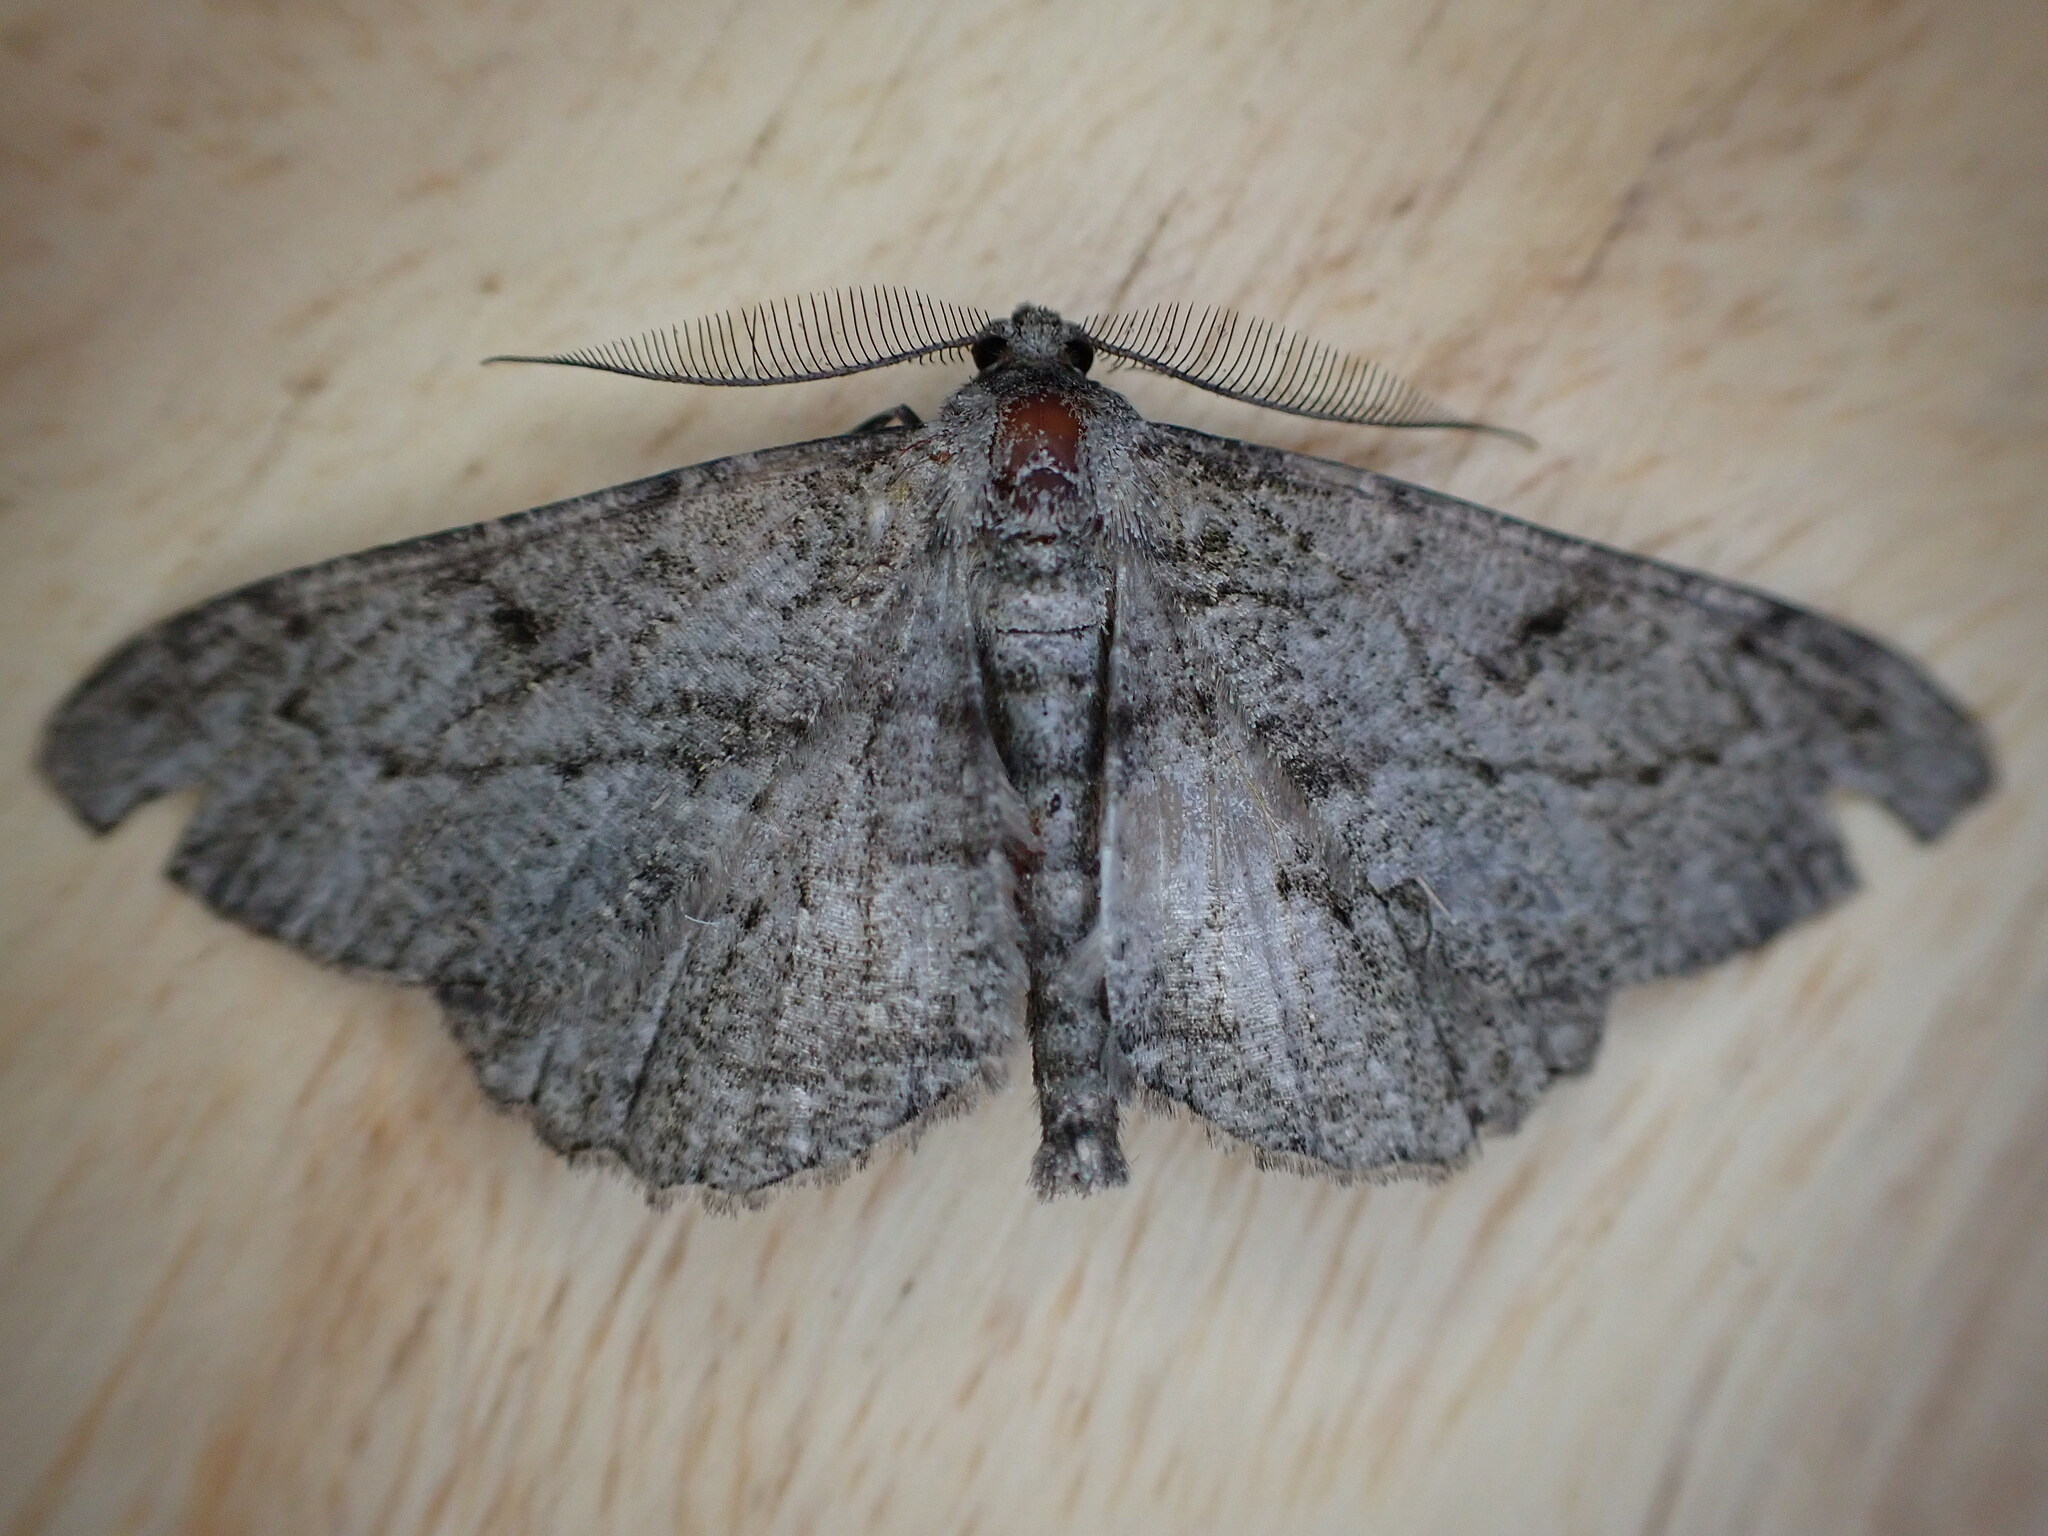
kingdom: Animalia
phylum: Arthropoda
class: Insecta
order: Lepidoptera
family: Geometridae
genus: Peribatodes
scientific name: Peribatodes rhomboidaria
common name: Willow beauty
